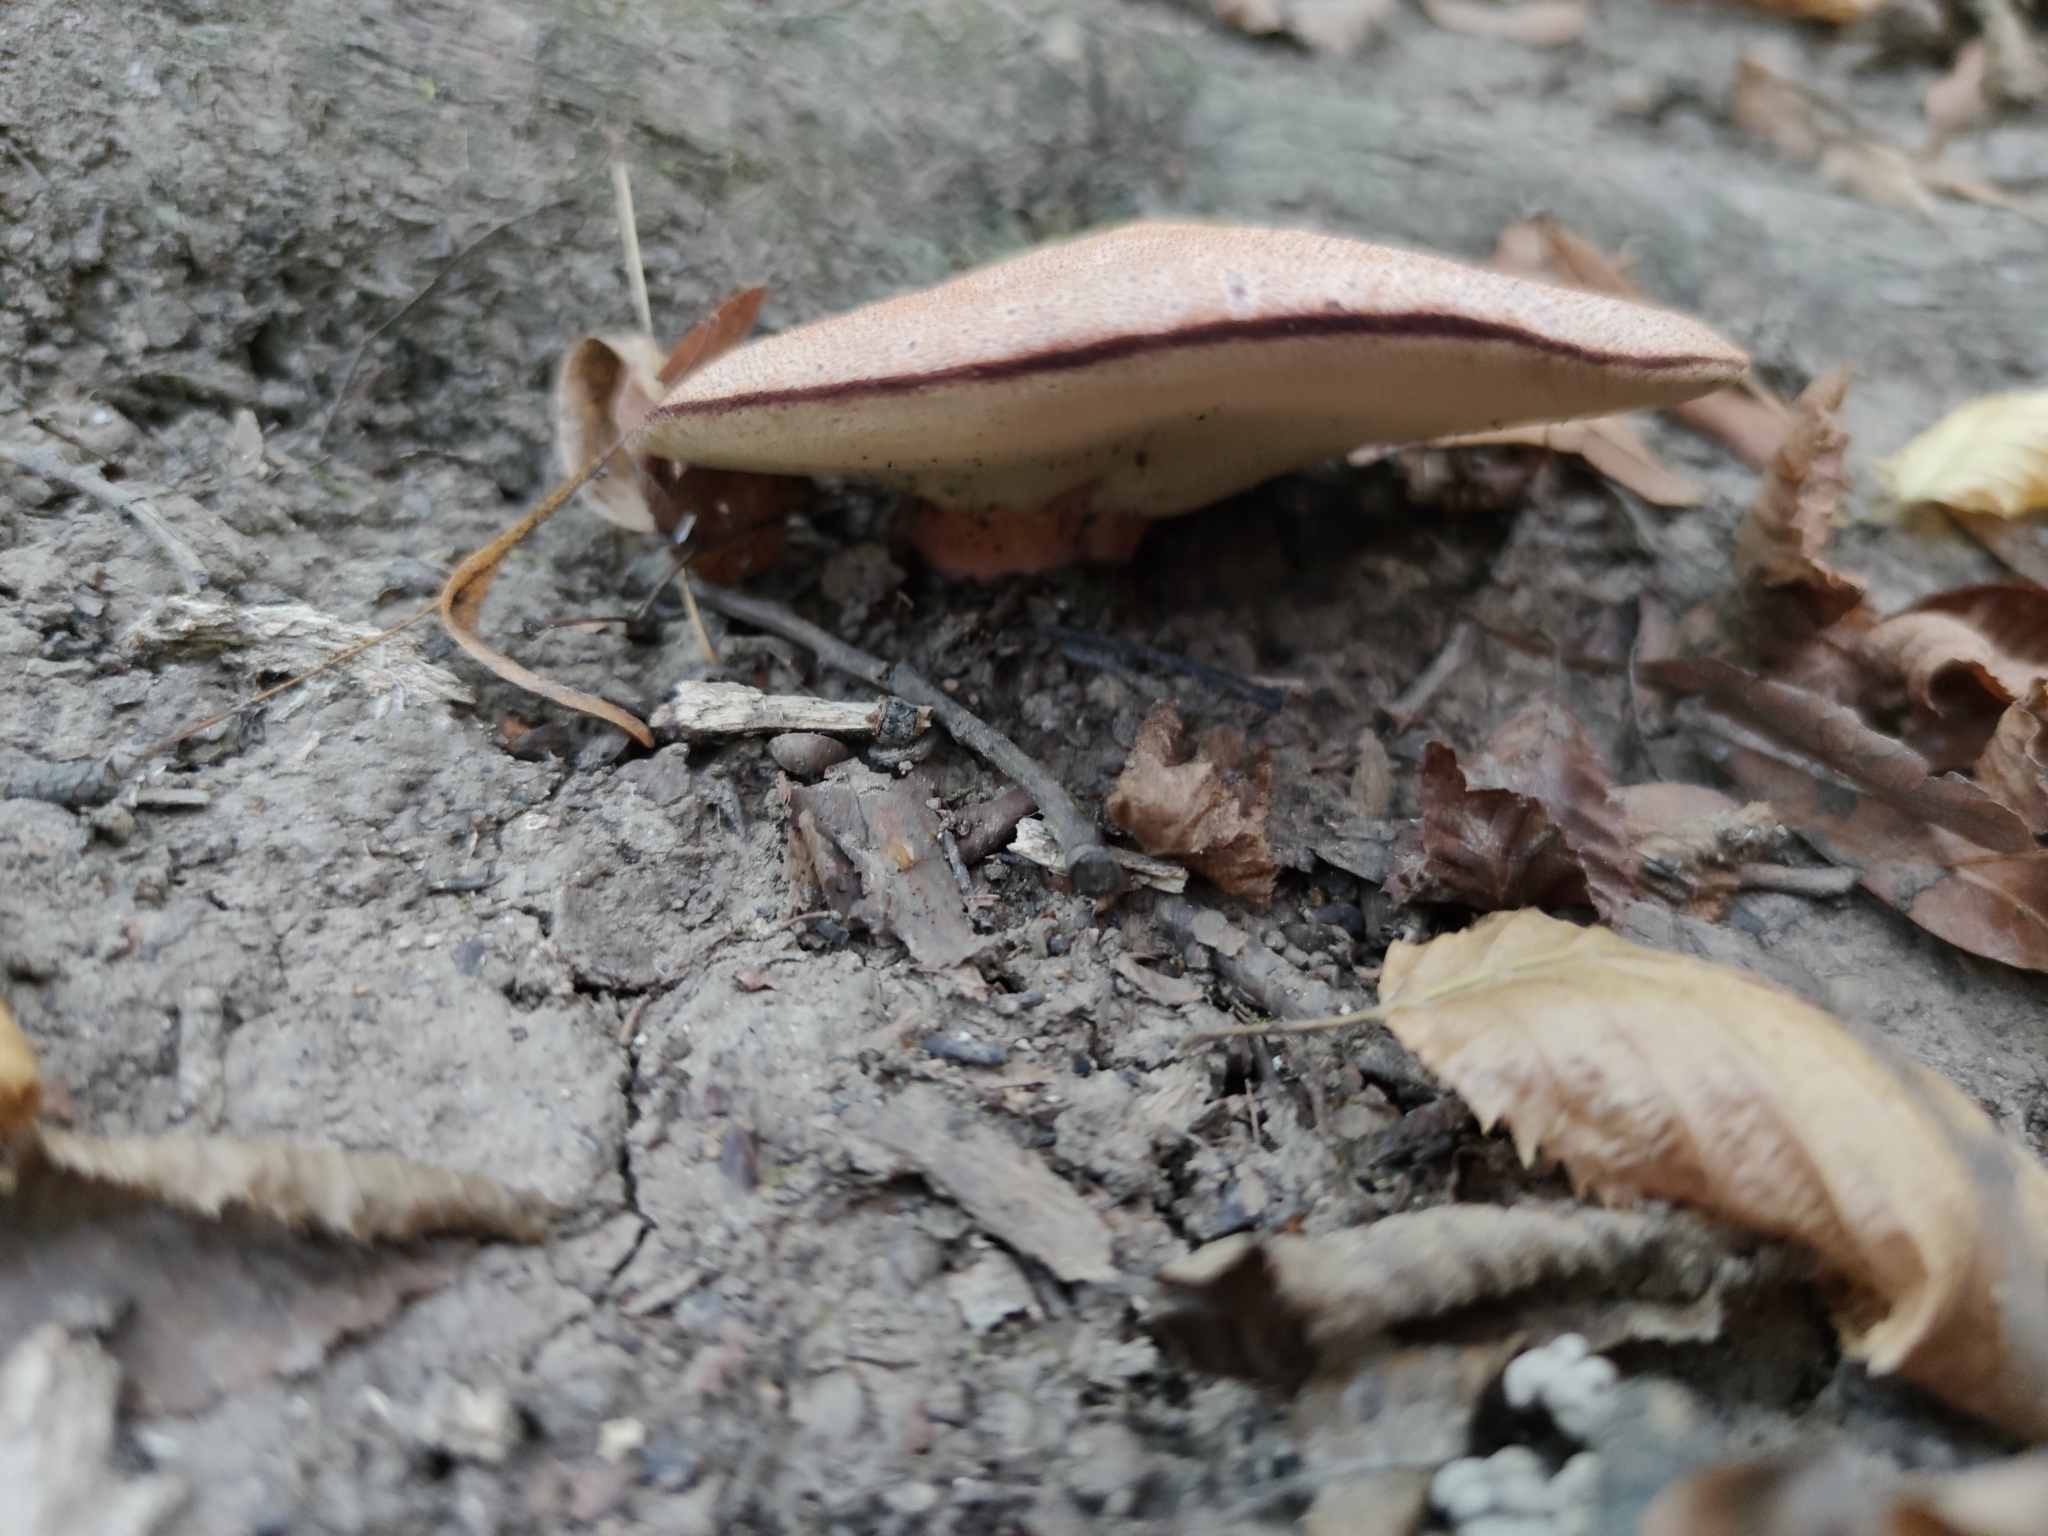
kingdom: Fungi
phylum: Basidiomycota
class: Agaricomycetes
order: Agaricales
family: Fistulinaceae
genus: Fistulina
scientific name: Fistulina hepatica
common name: Beef-steak fungus
